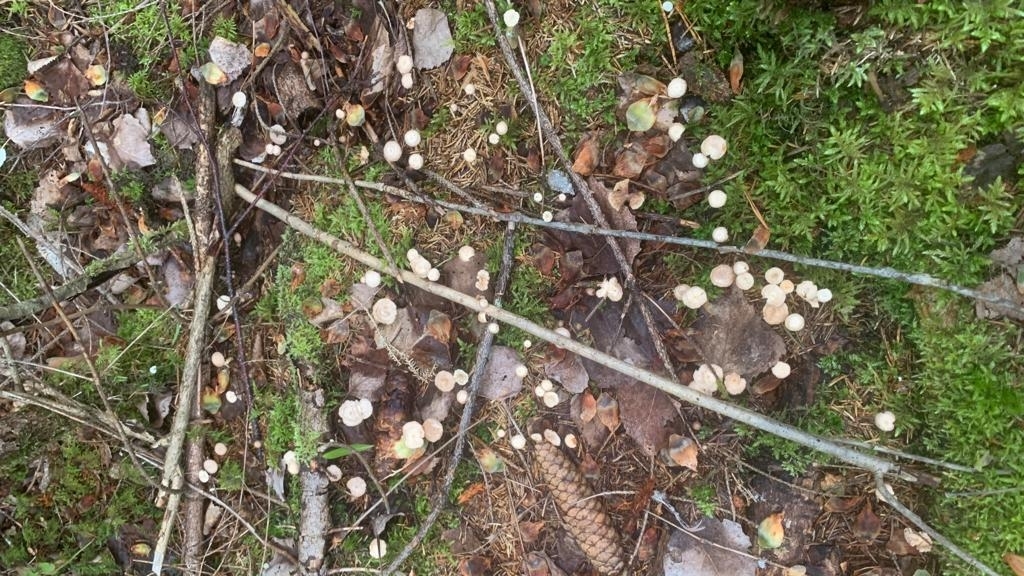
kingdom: Fungi
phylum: Basidiomycota
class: Agaricomycetes
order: Agaricales
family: Omphalotaceae
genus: Gymnopus
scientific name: Gymnopus androsaceus
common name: Horse-hair fungus
